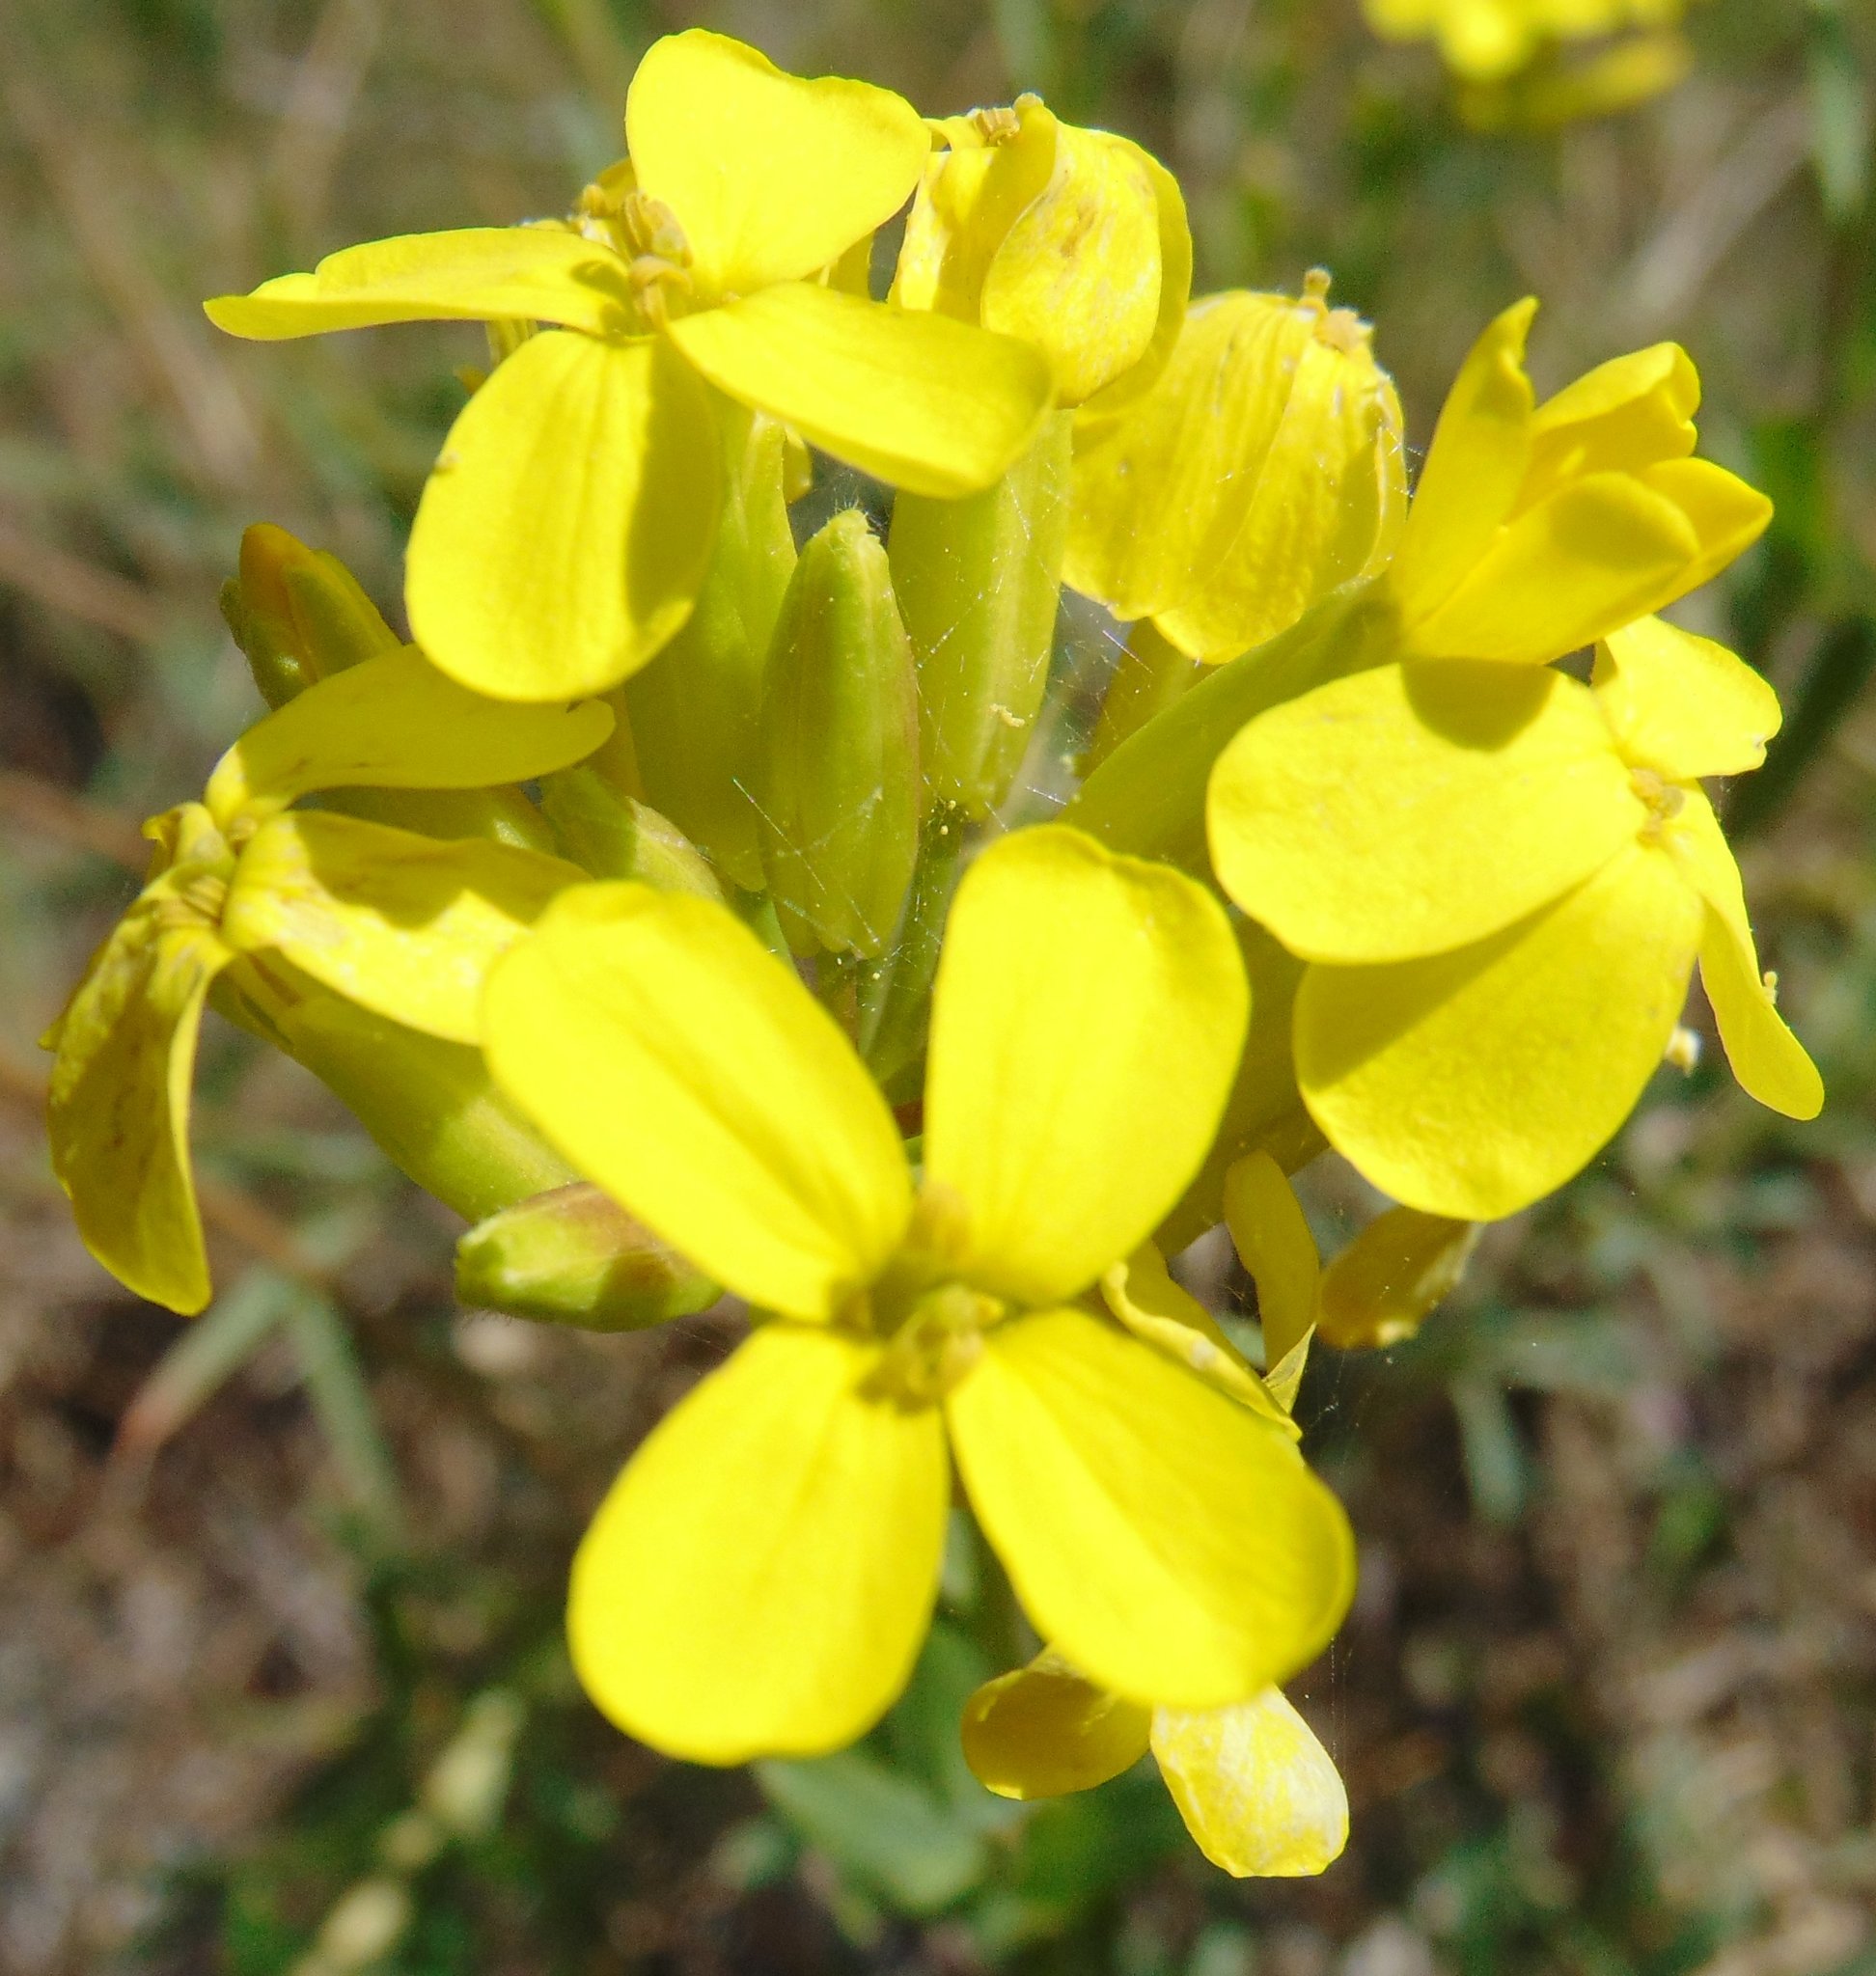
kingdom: Plantae
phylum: Tracheophyta
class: Magnoliopsida
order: Brassicales
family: Brassicaceae
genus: Alyssoides
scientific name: Alyssoides utriculata
